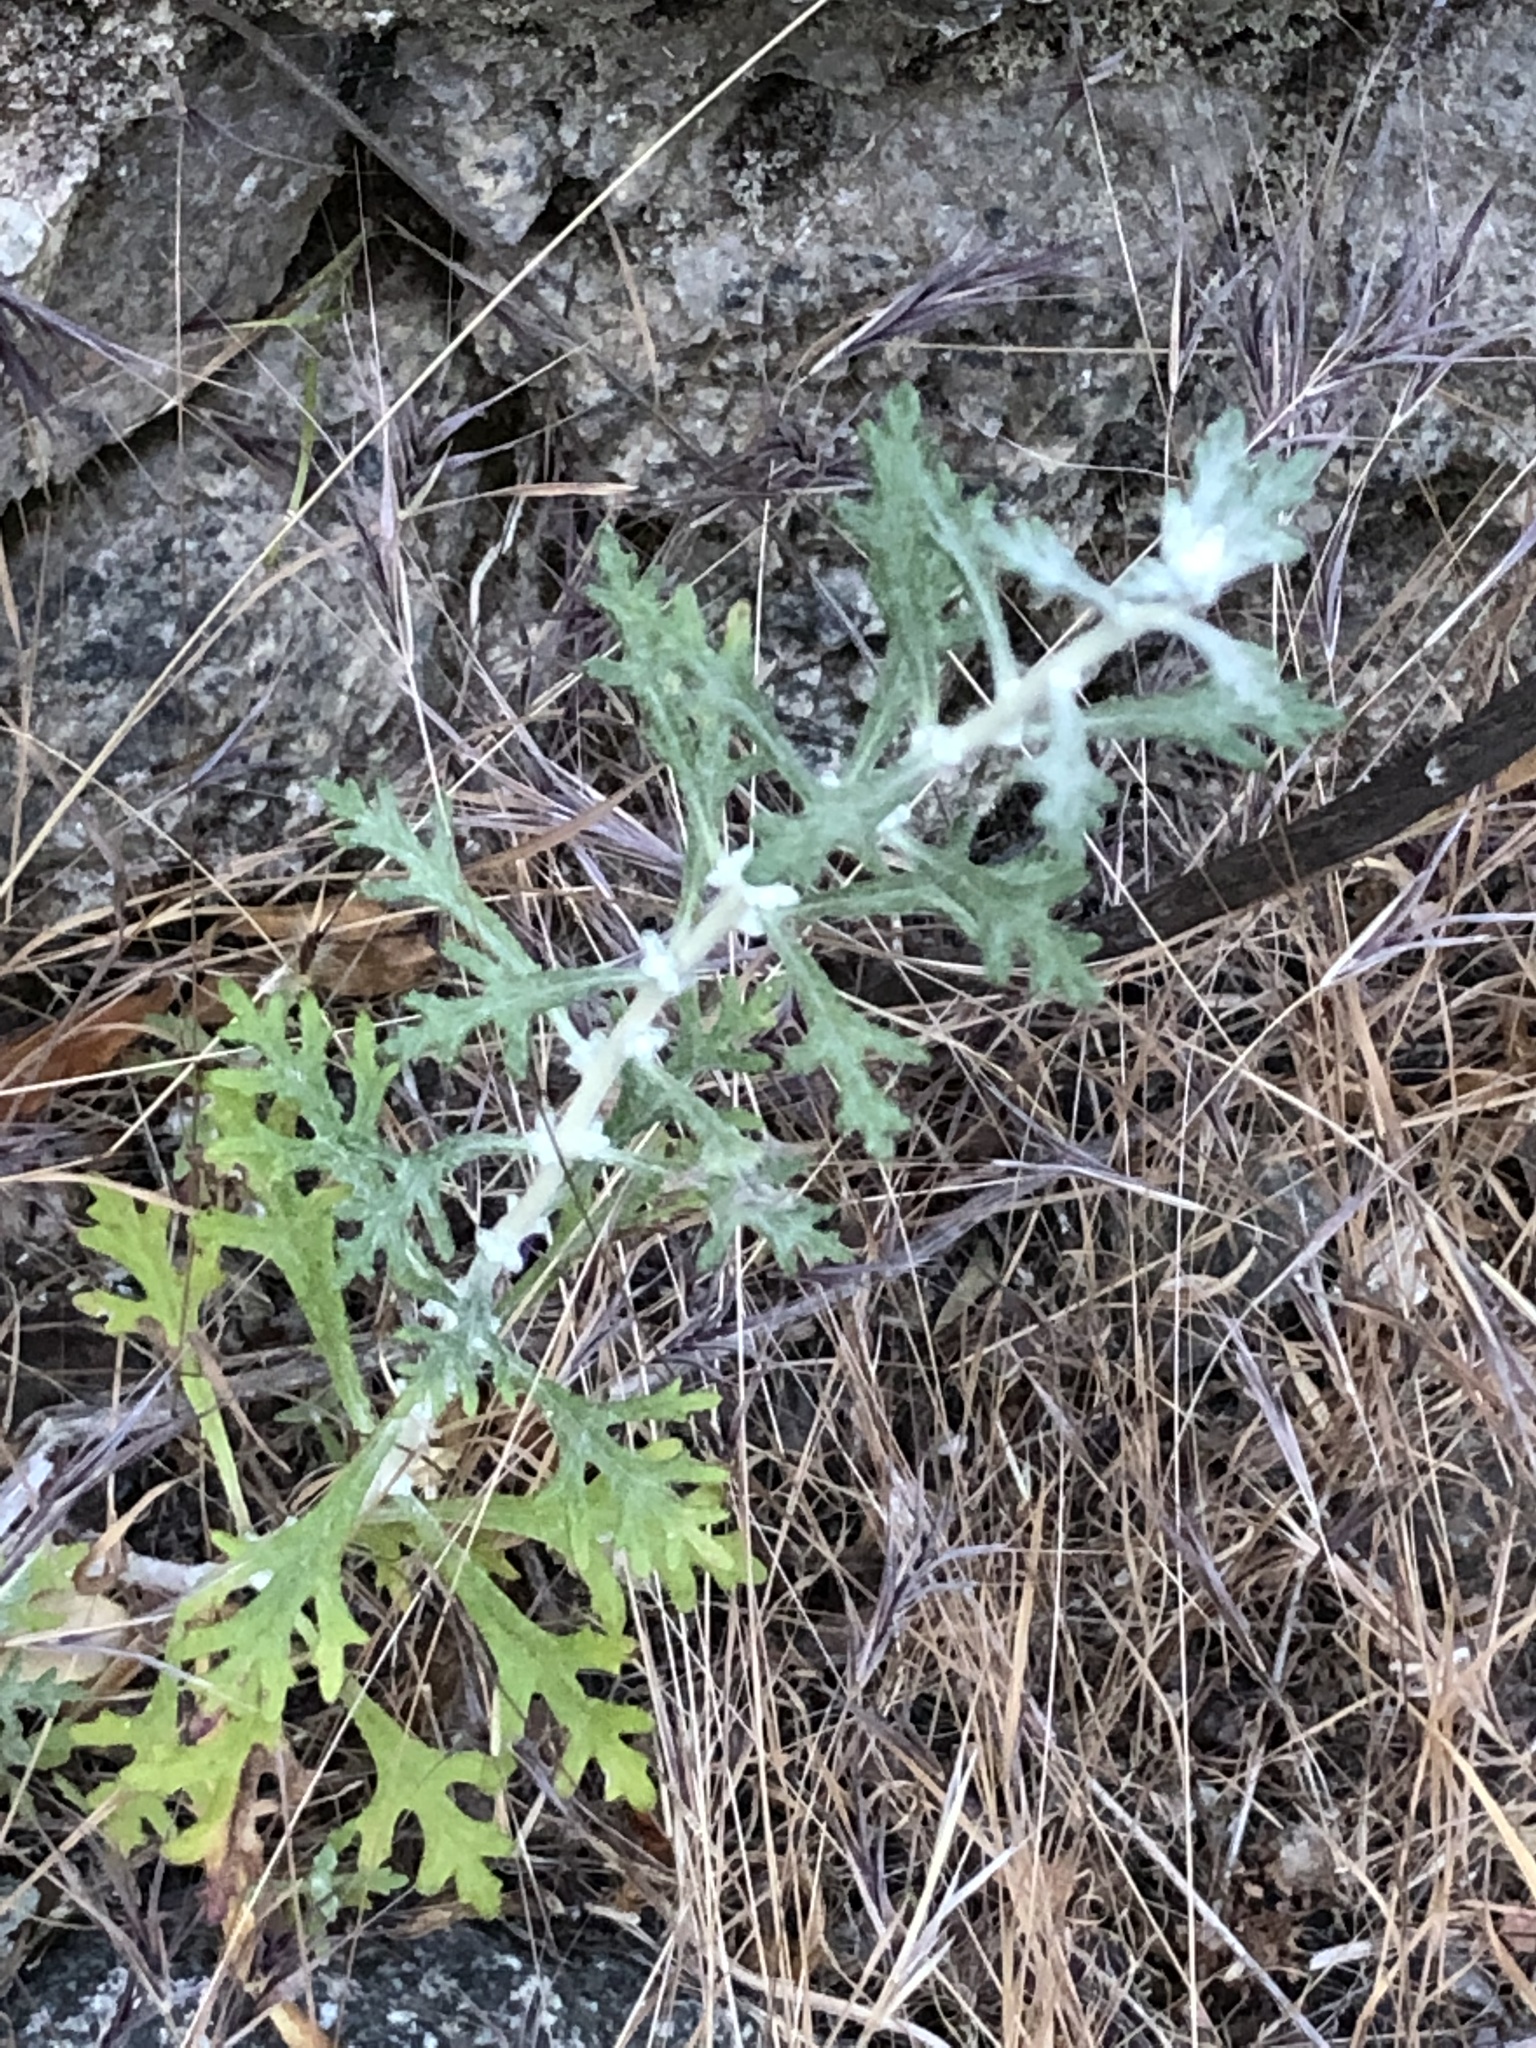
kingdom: Plantae
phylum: Tracheophyta
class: Magnoliopsida
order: Asterales
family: Asteraceae
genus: Eriophyllum
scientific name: Eriophyllum confertiflorum
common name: Golden-yarrow
